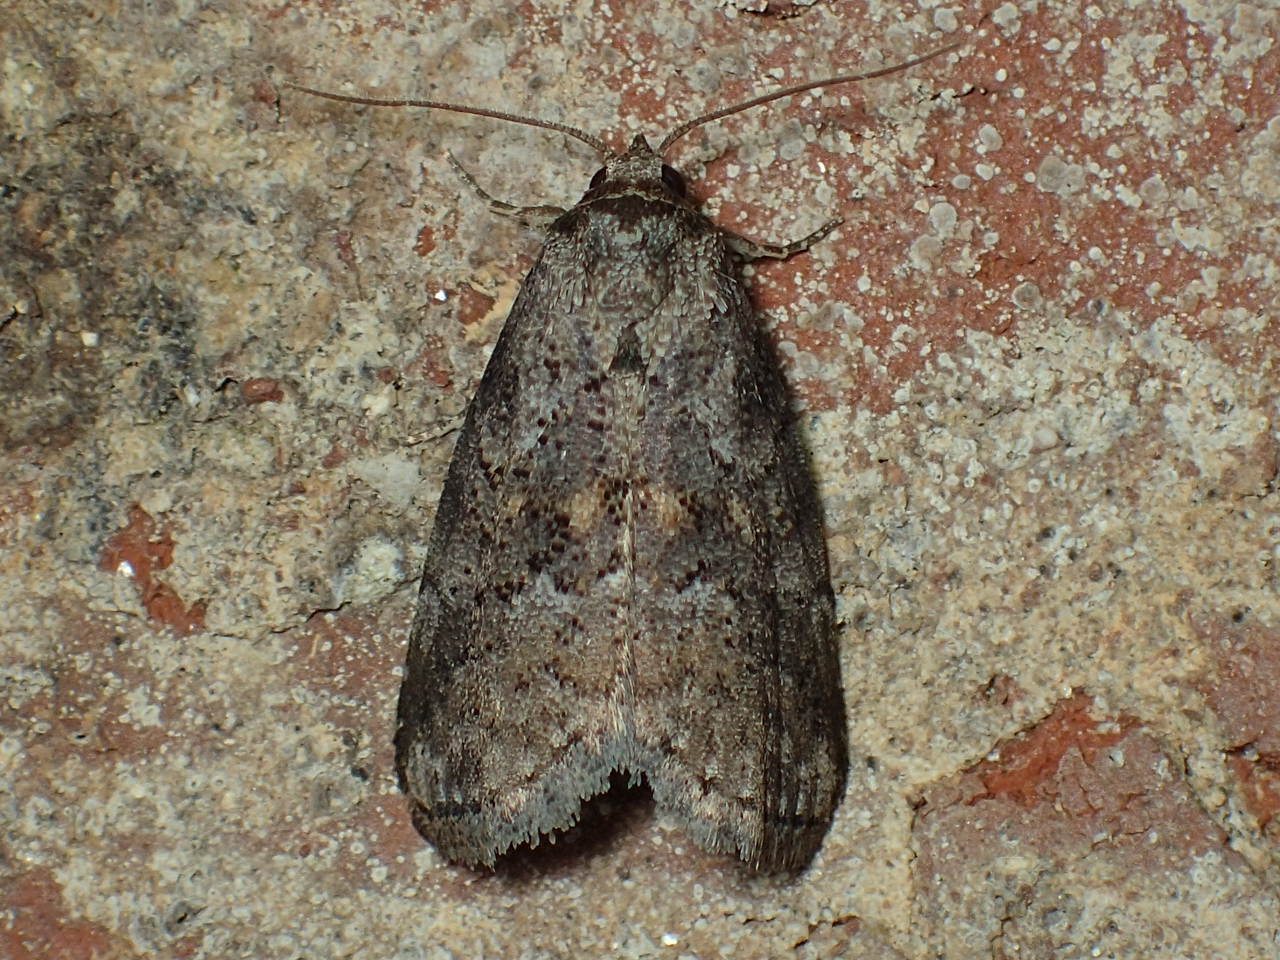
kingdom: Animalia
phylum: Arthropoda
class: Insecta
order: Lepidoptera
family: Erebidae
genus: Hyperstrotia
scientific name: Hyperstrotia nana
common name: White-lined graylet
